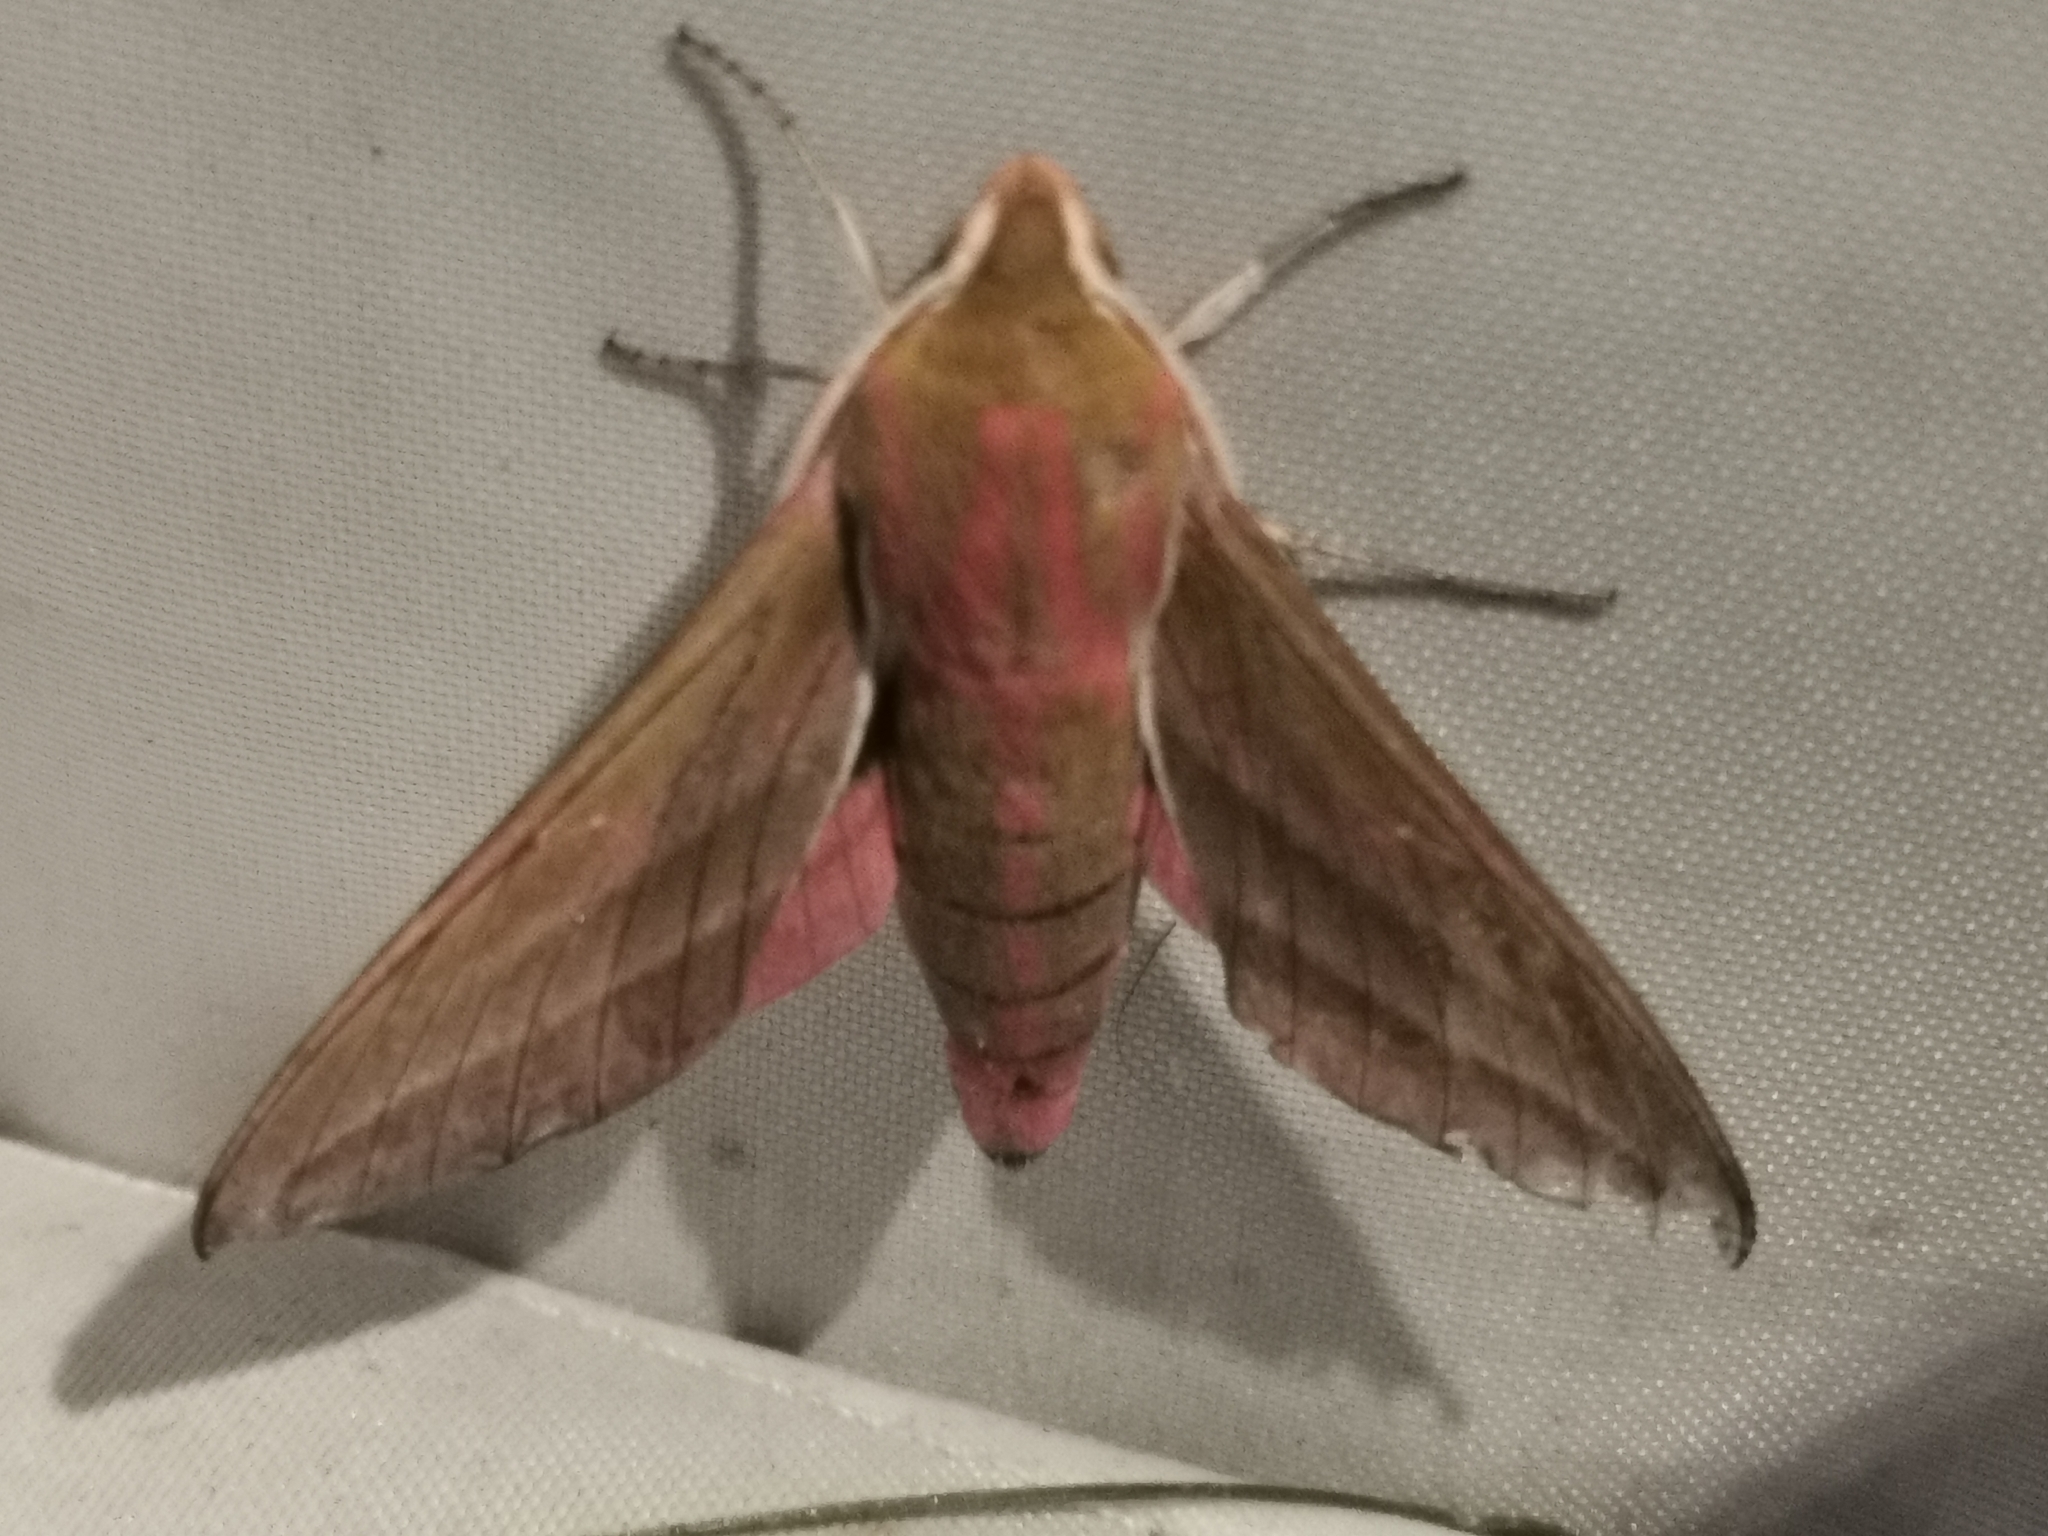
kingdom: Animalia
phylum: Arthropoda
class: Insecta
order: Lepidoptera
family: Sphingidae
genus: Deilephila
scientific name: Deilephila elpenor
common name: Elephant hawk-moth
